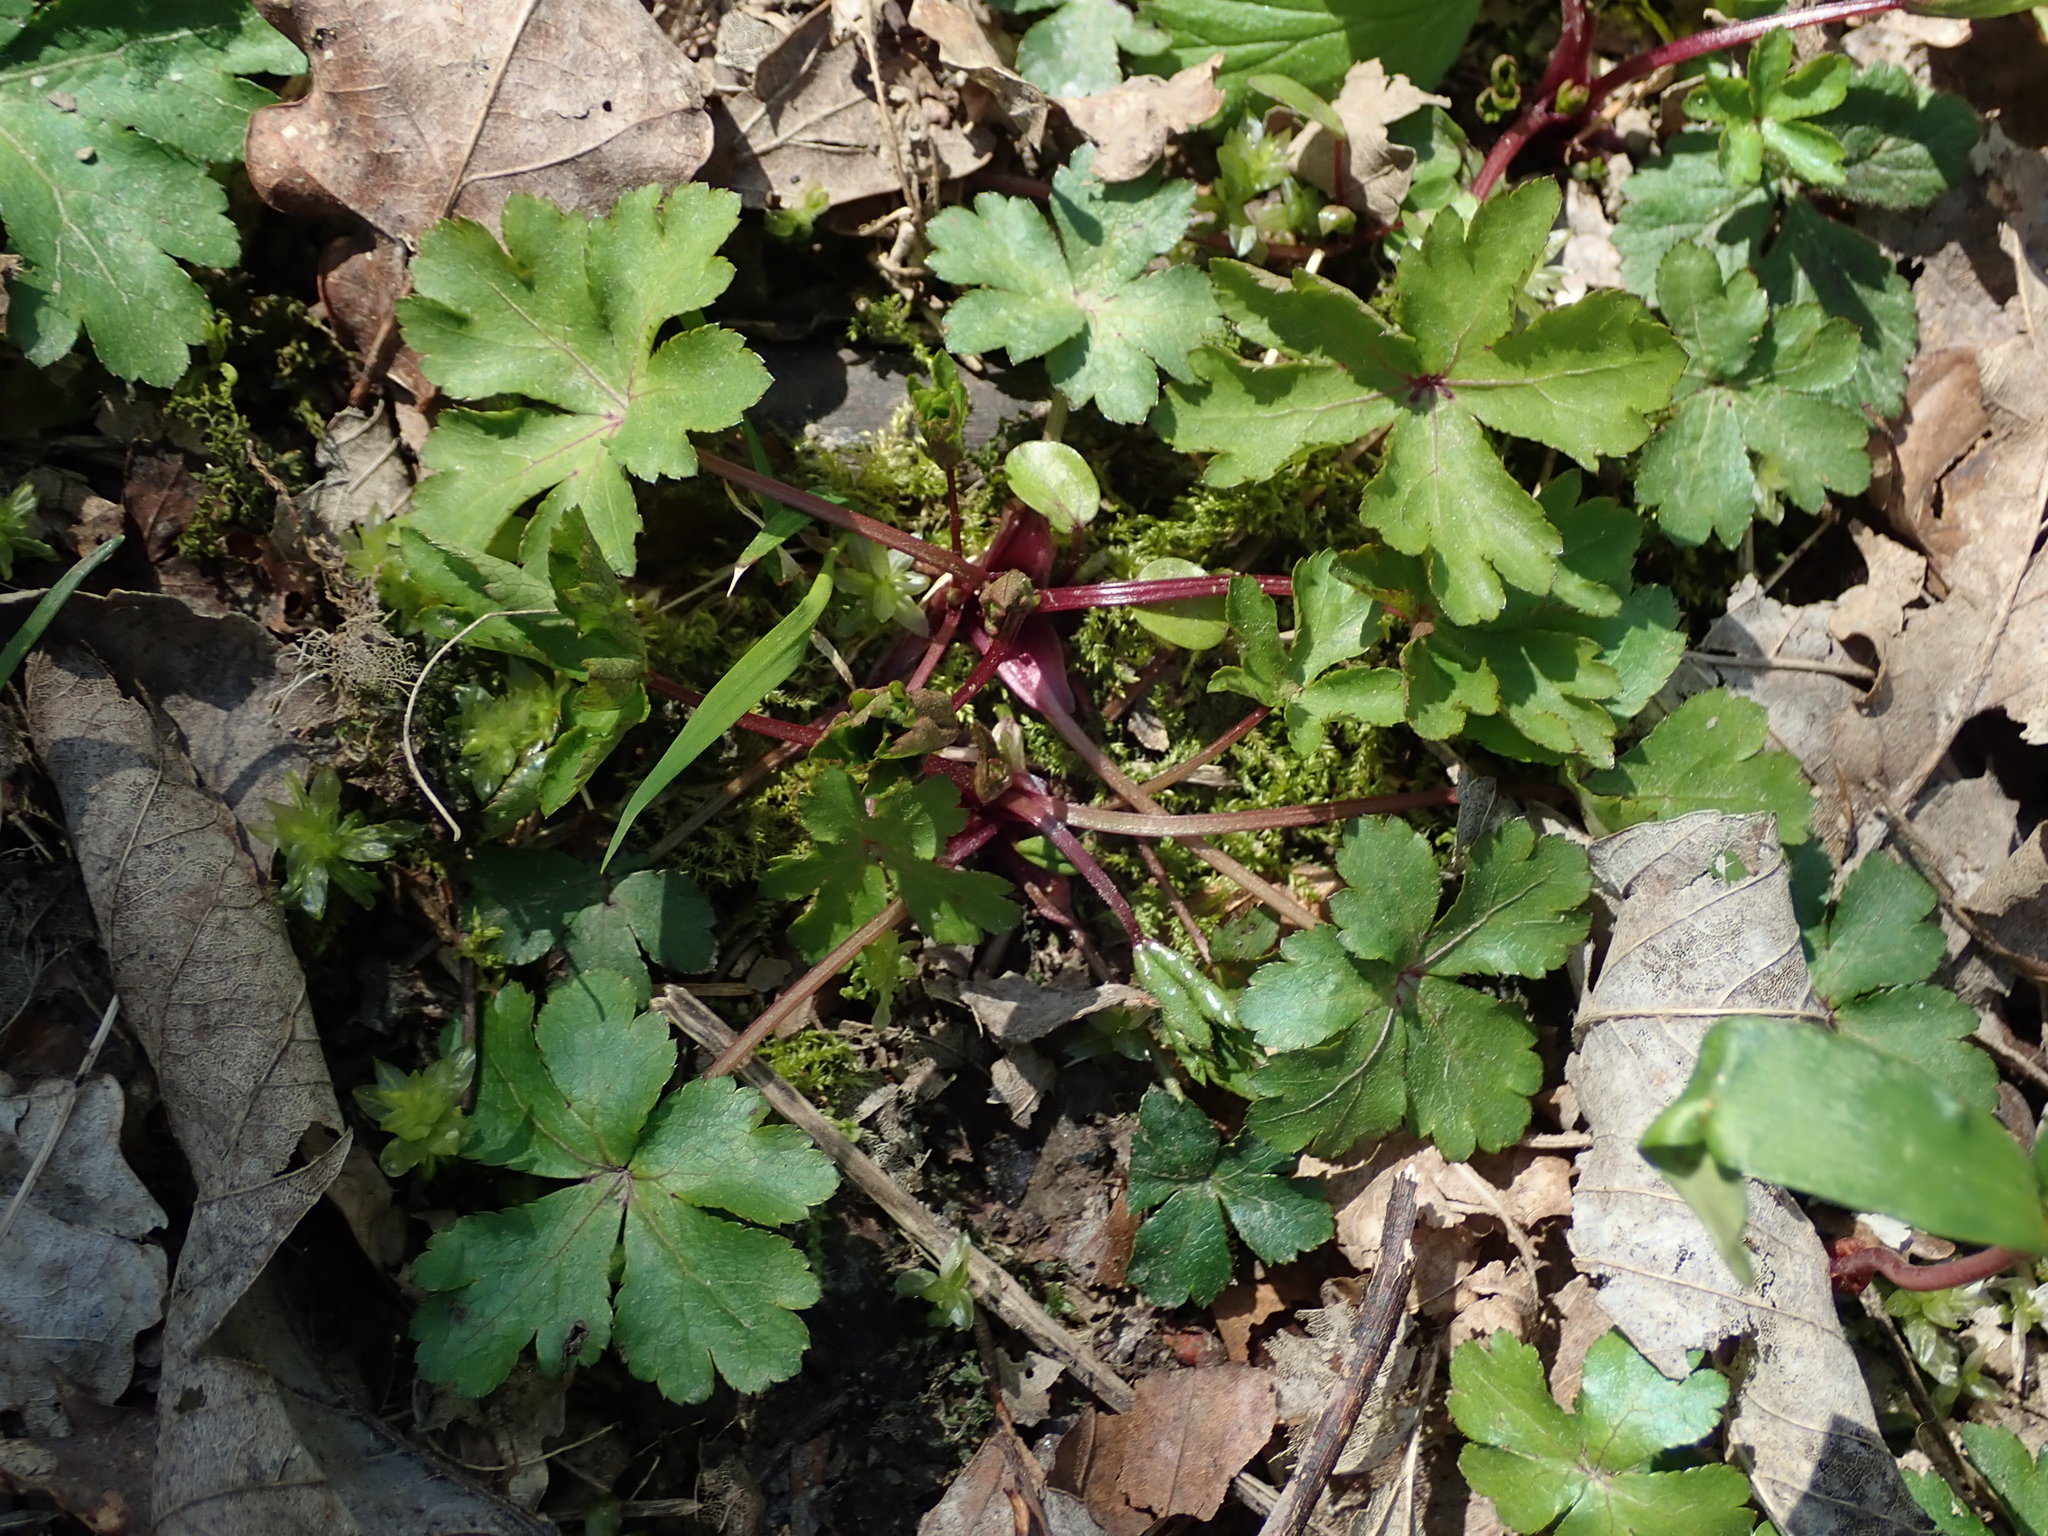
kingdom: Plantae
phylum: Tracheophyta
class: Magnoliopsida
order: Apiales
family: Apiaceae
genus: Sanicula
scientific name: Sanicula europaea
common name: Sanicle
